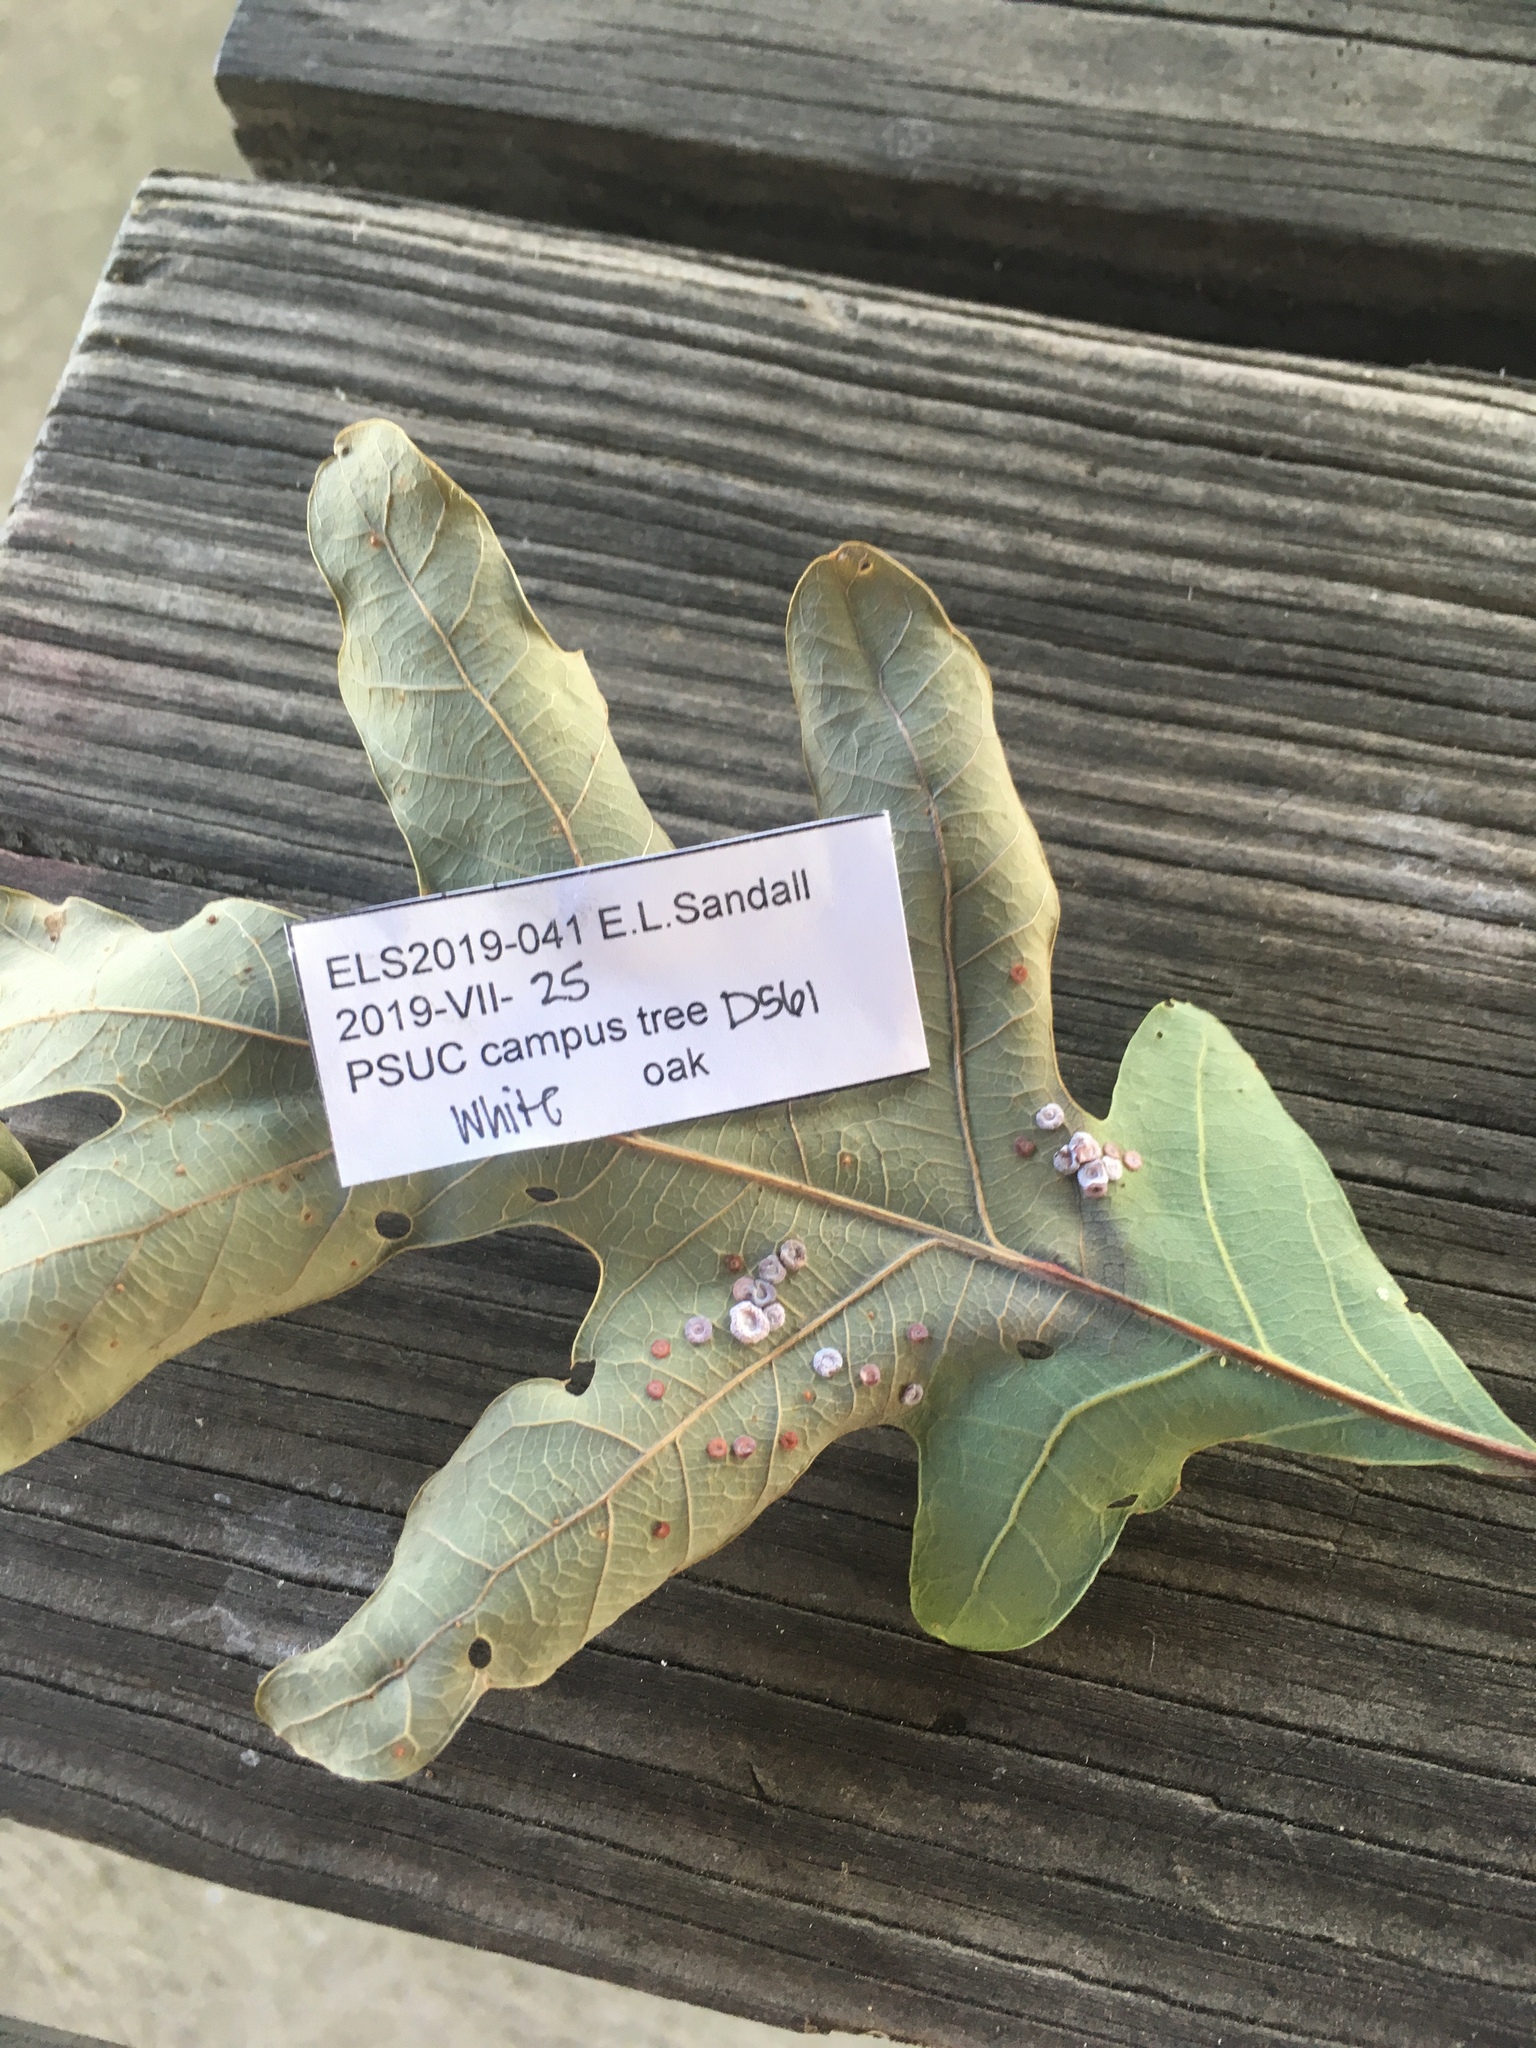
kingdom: Animalia
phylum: Arthropoda
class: Insecta
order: Hymenoptera
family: Cynipidae
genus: Phylloteras
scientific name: Phylloteras poculum
